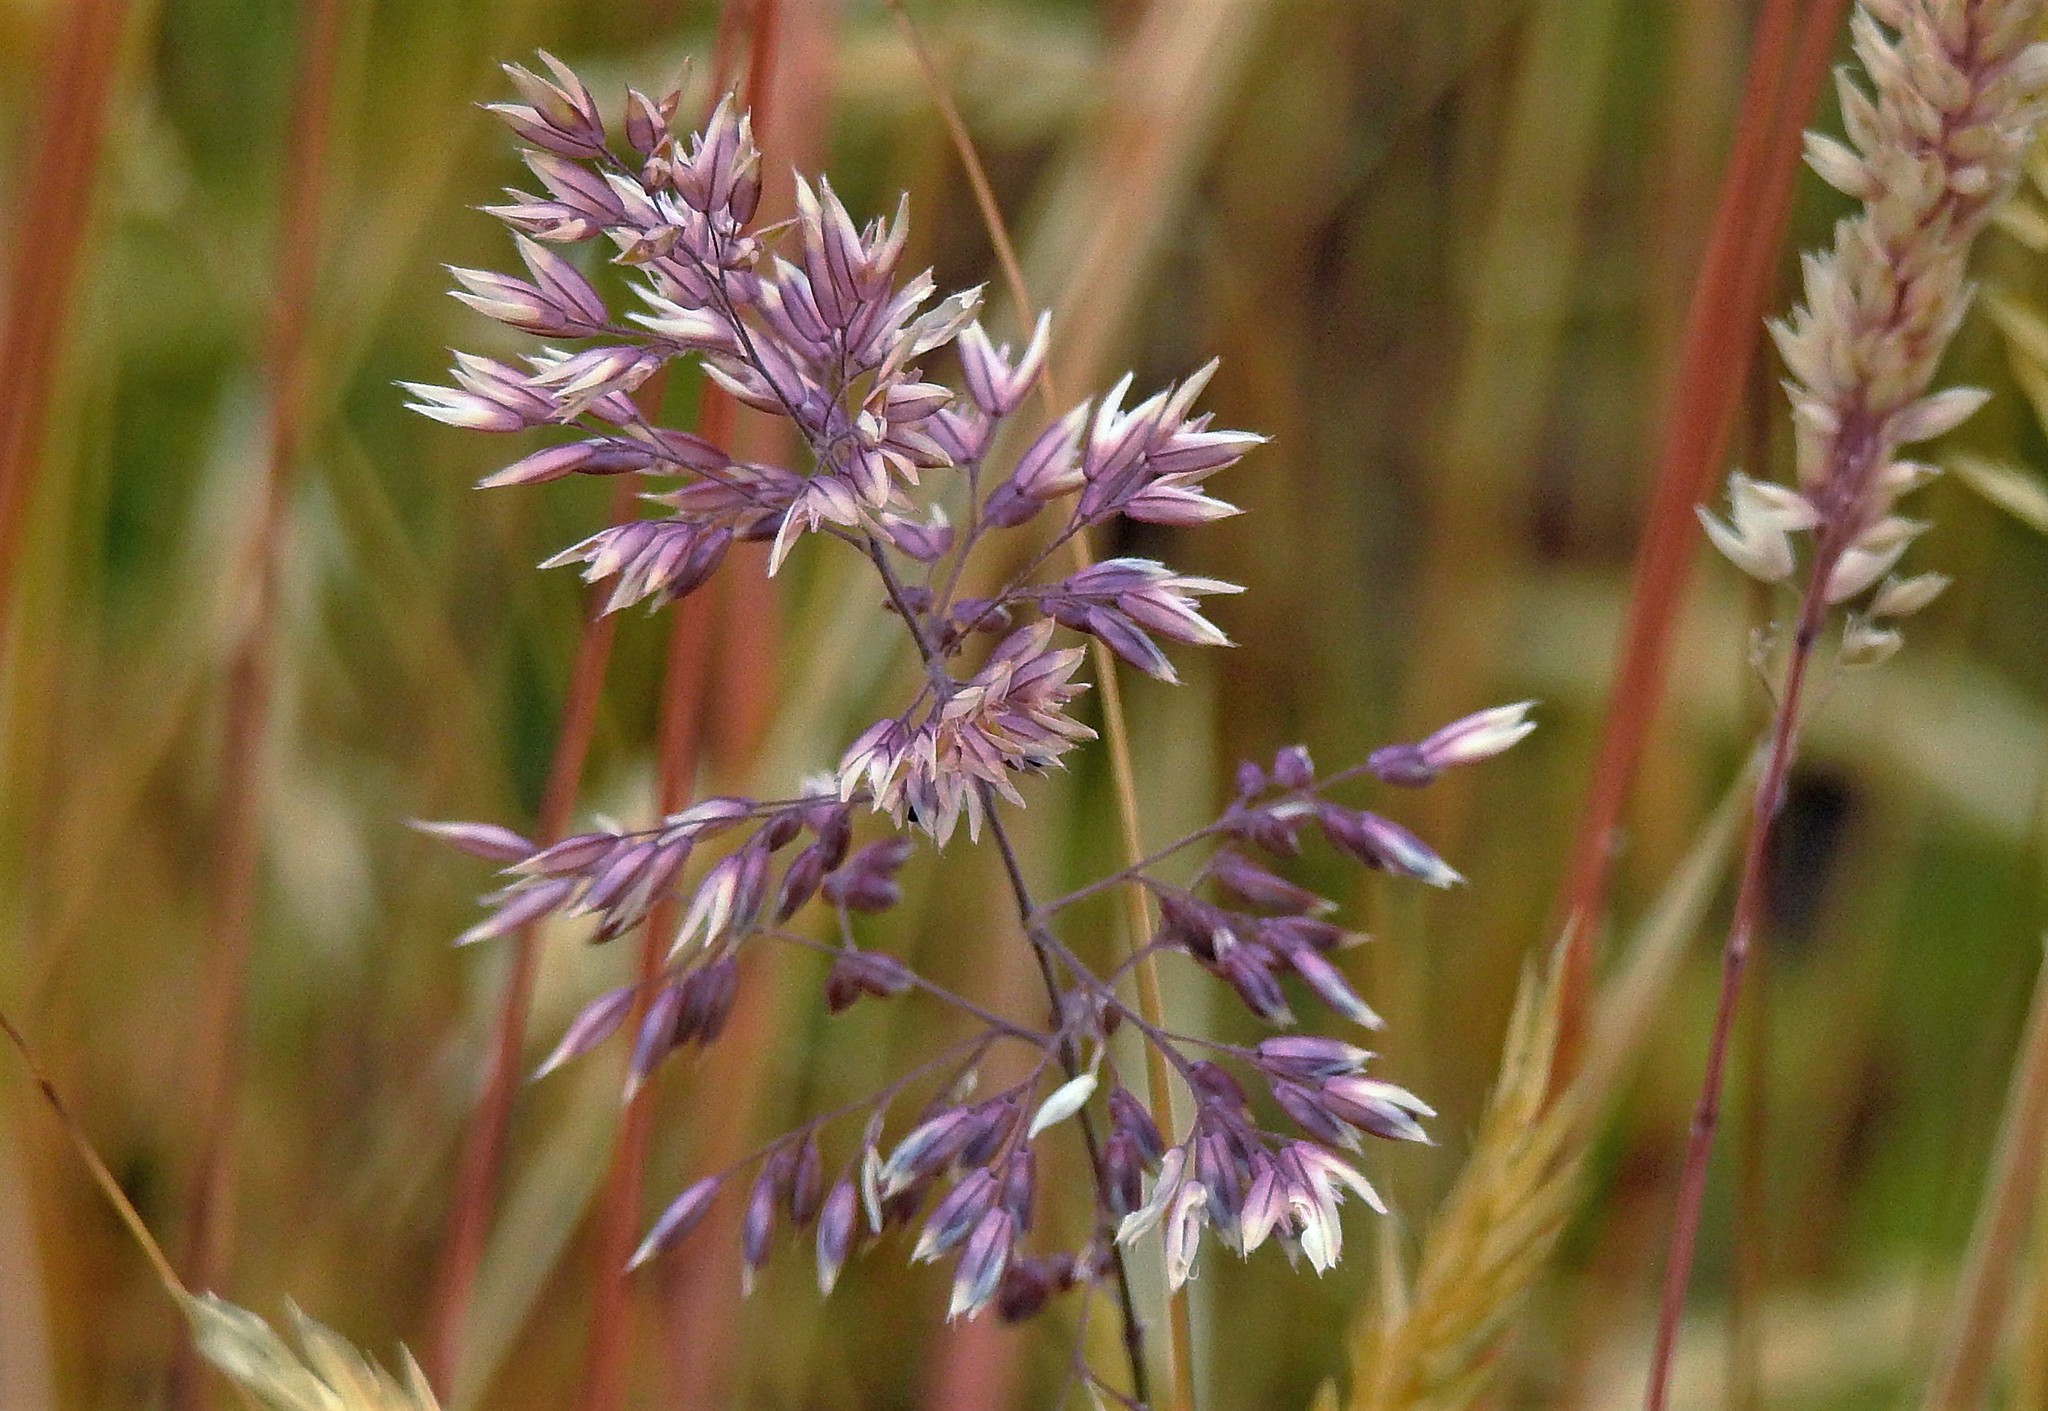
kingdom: Plantae
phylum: Tracheophyta
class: Liliopsida
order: Poales
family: Poaceae
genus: Holcus
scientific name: Holcus lanatus
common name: Yorkshire-fog
